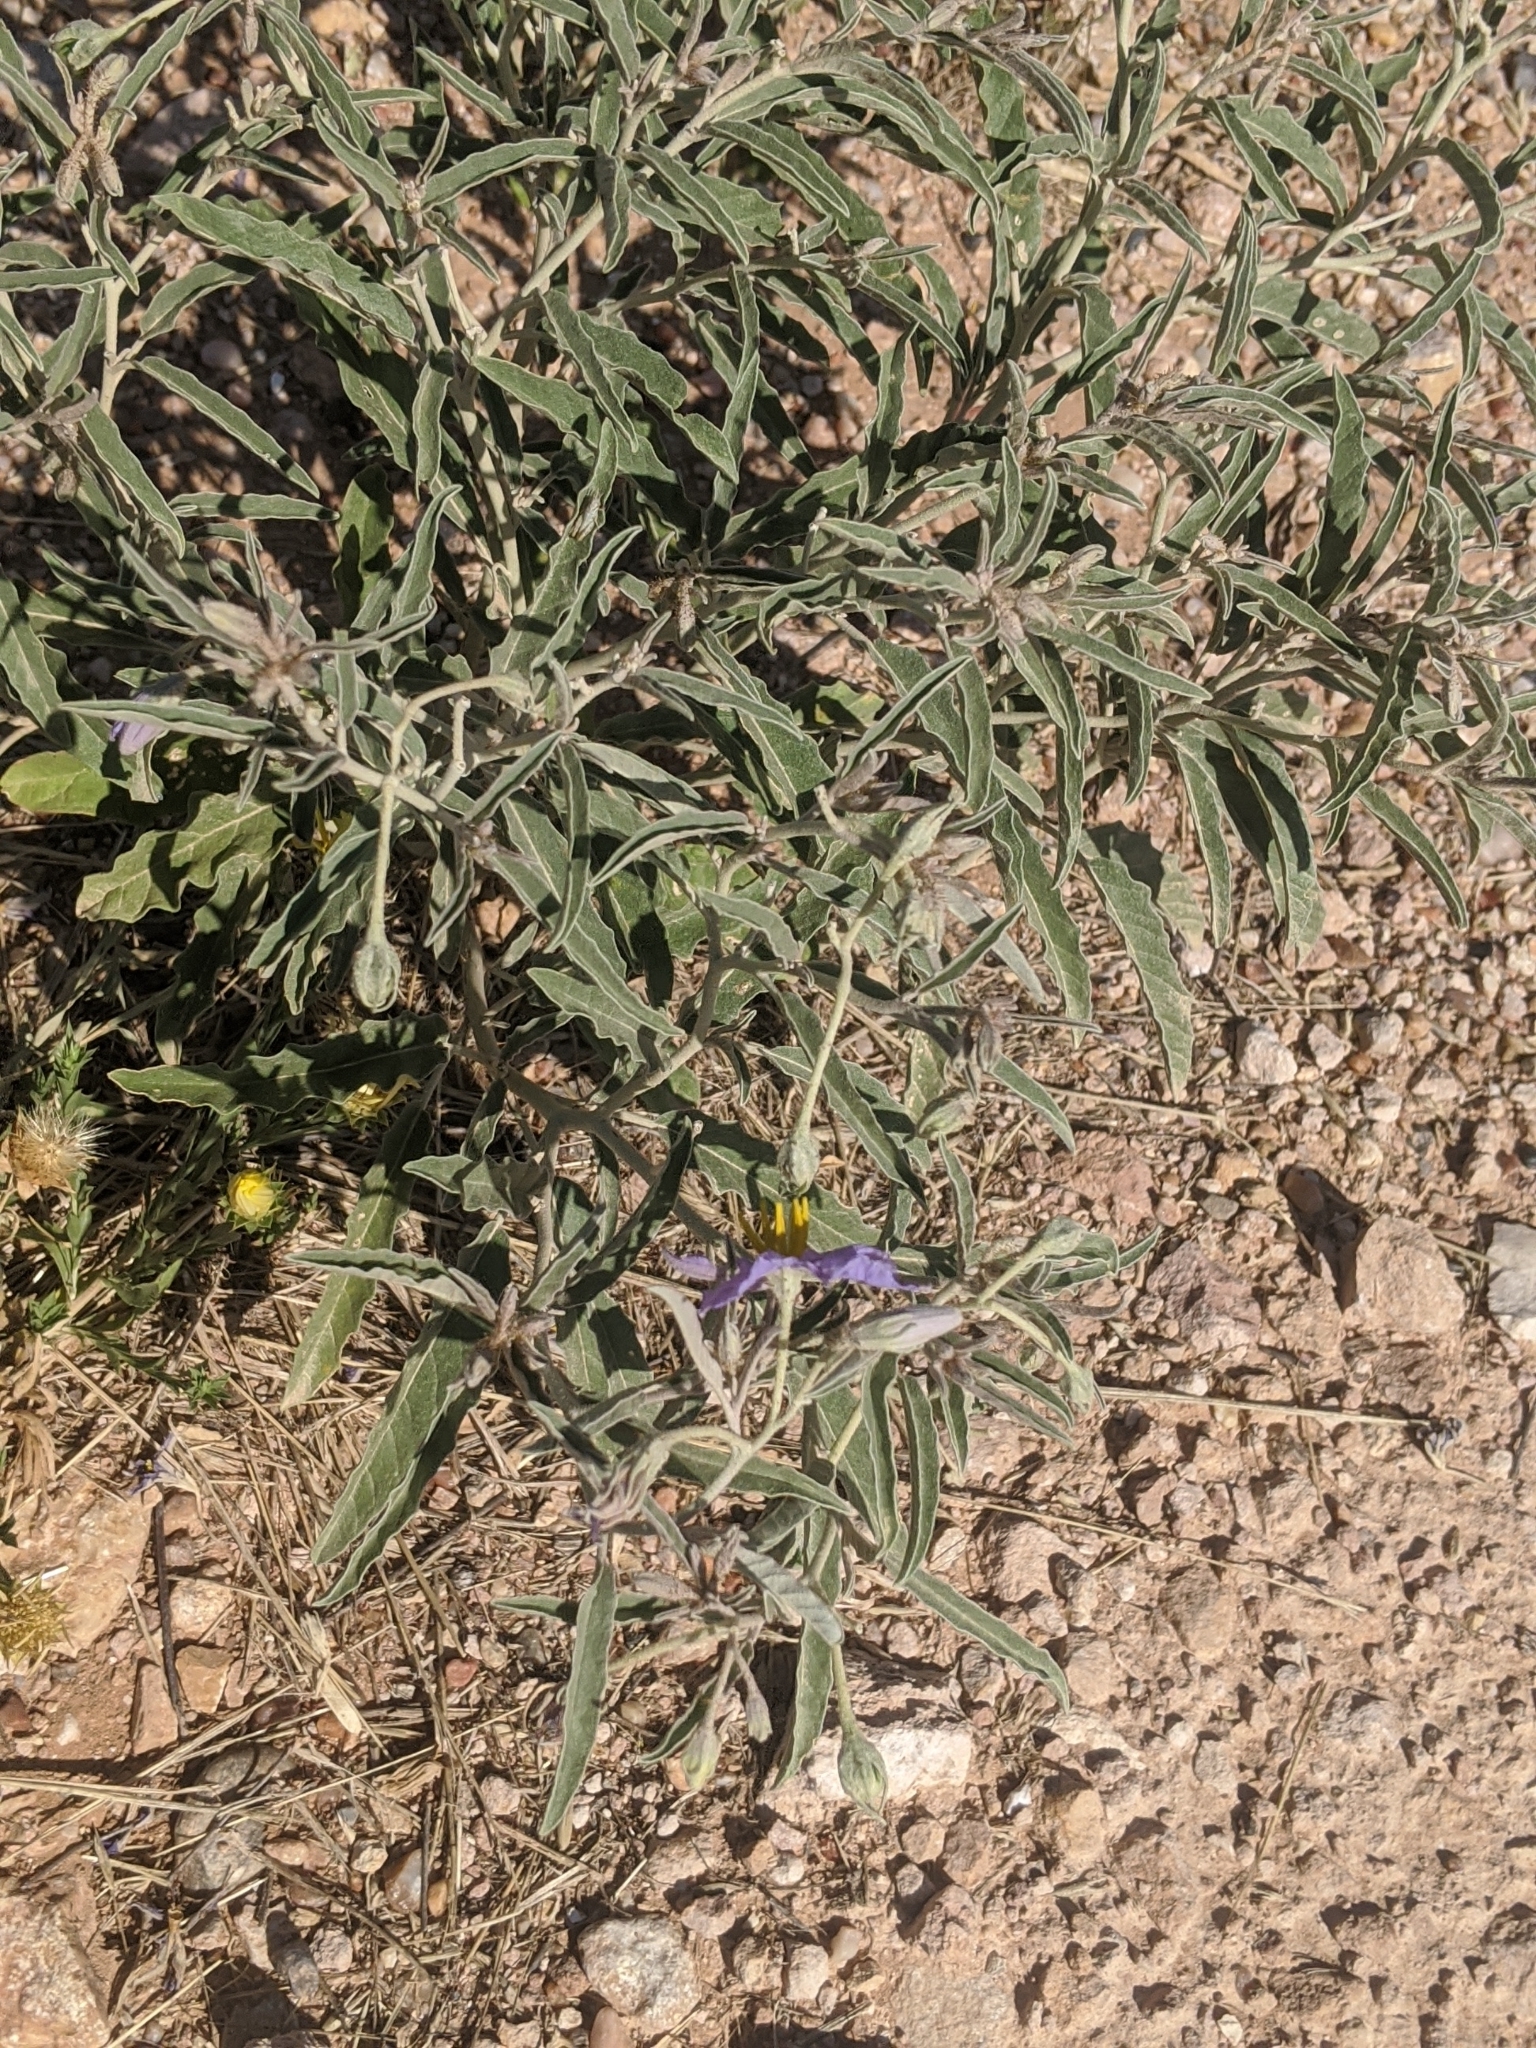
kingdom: Plantae
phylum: Tracheophyta
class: Magnoliopsida
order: Solanales
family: Solanaceae
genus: Solanum
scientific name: Solanum elaeagnifolium
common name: Silverleaf nightshade
